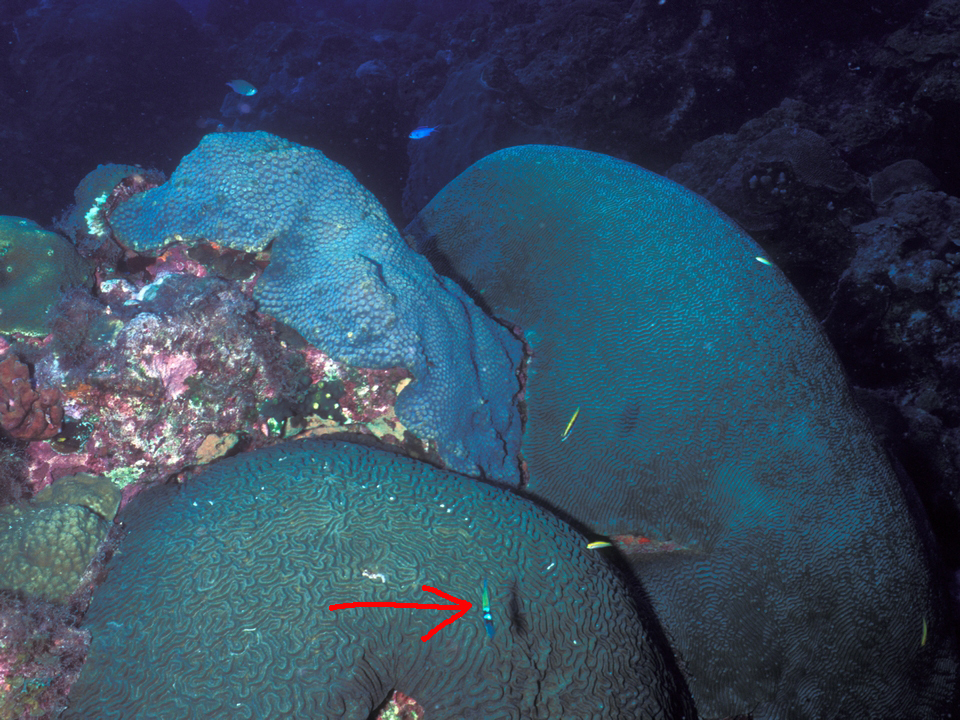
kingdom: Animalia
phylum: Chordata
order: Perciformes
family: Labridae
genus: Thalassoma
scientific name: Thalassoma bifasciatum
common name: Bluehead wrasse
